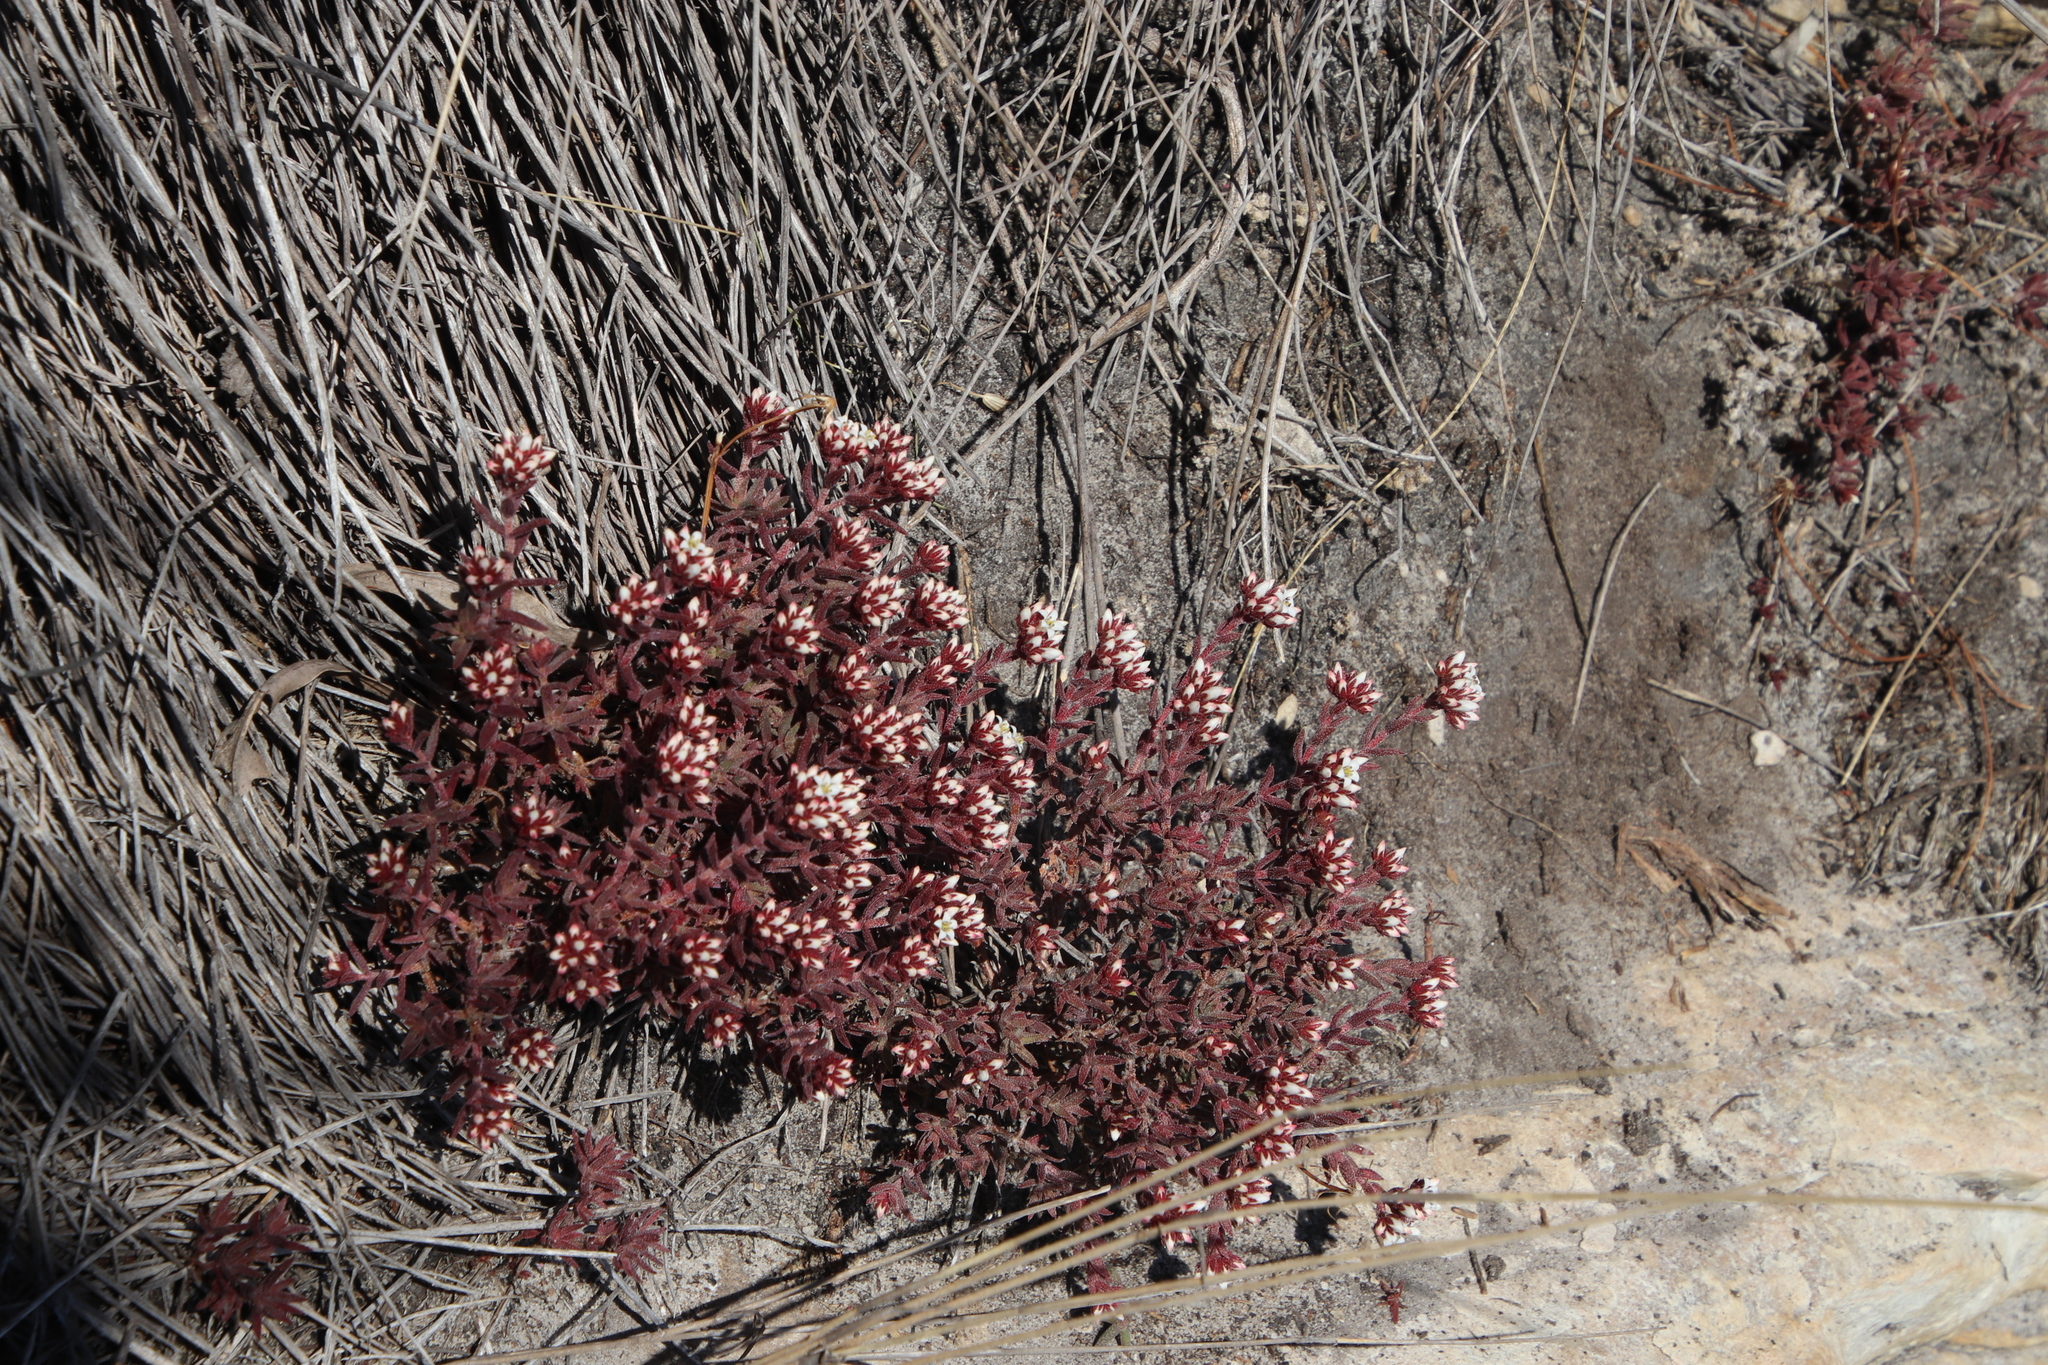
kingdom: Plantae
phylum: Tracheophyta
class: Magnoliopsida
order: Saxifragales
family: Crassulaceae
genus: Crassula
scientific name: Crassula pruinosa
